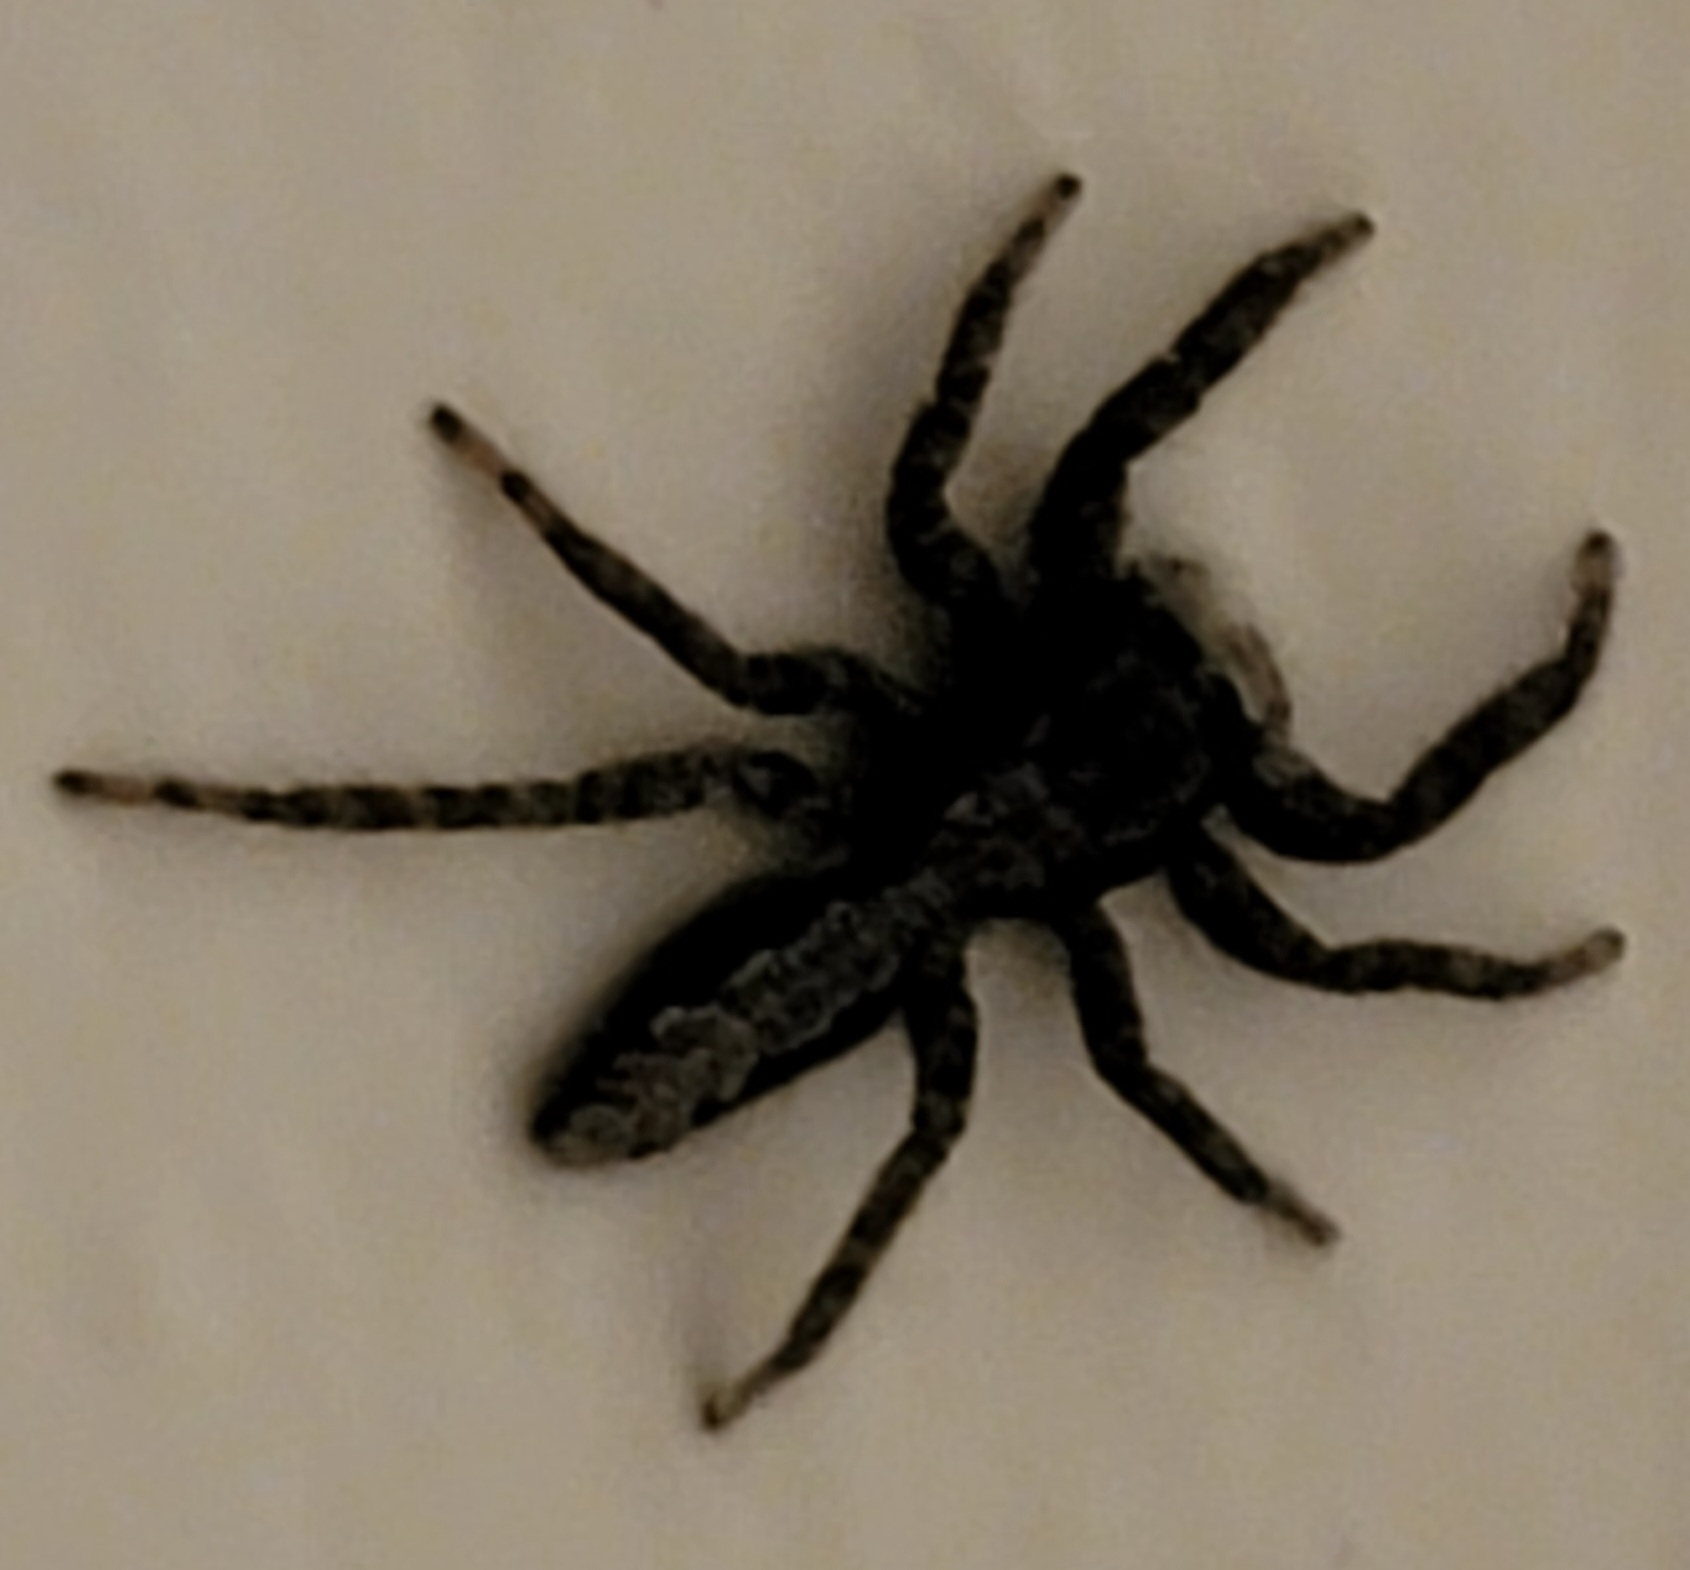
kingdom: Animalia
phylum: Arthropoda
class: Arachnida
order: Araneae
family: Salticidae
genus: Platycryptus
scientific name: Platycryptus californicus
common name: Jumping spiders
